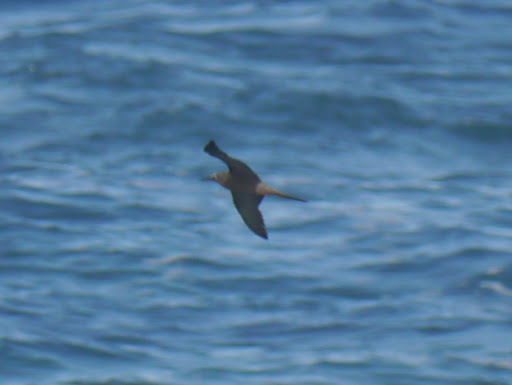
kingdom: Animalia
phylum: Chordata
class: Aves
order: Charadriiformes
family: Laridae
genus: Anous
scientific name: Anous stolidus
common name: Brown noddy
